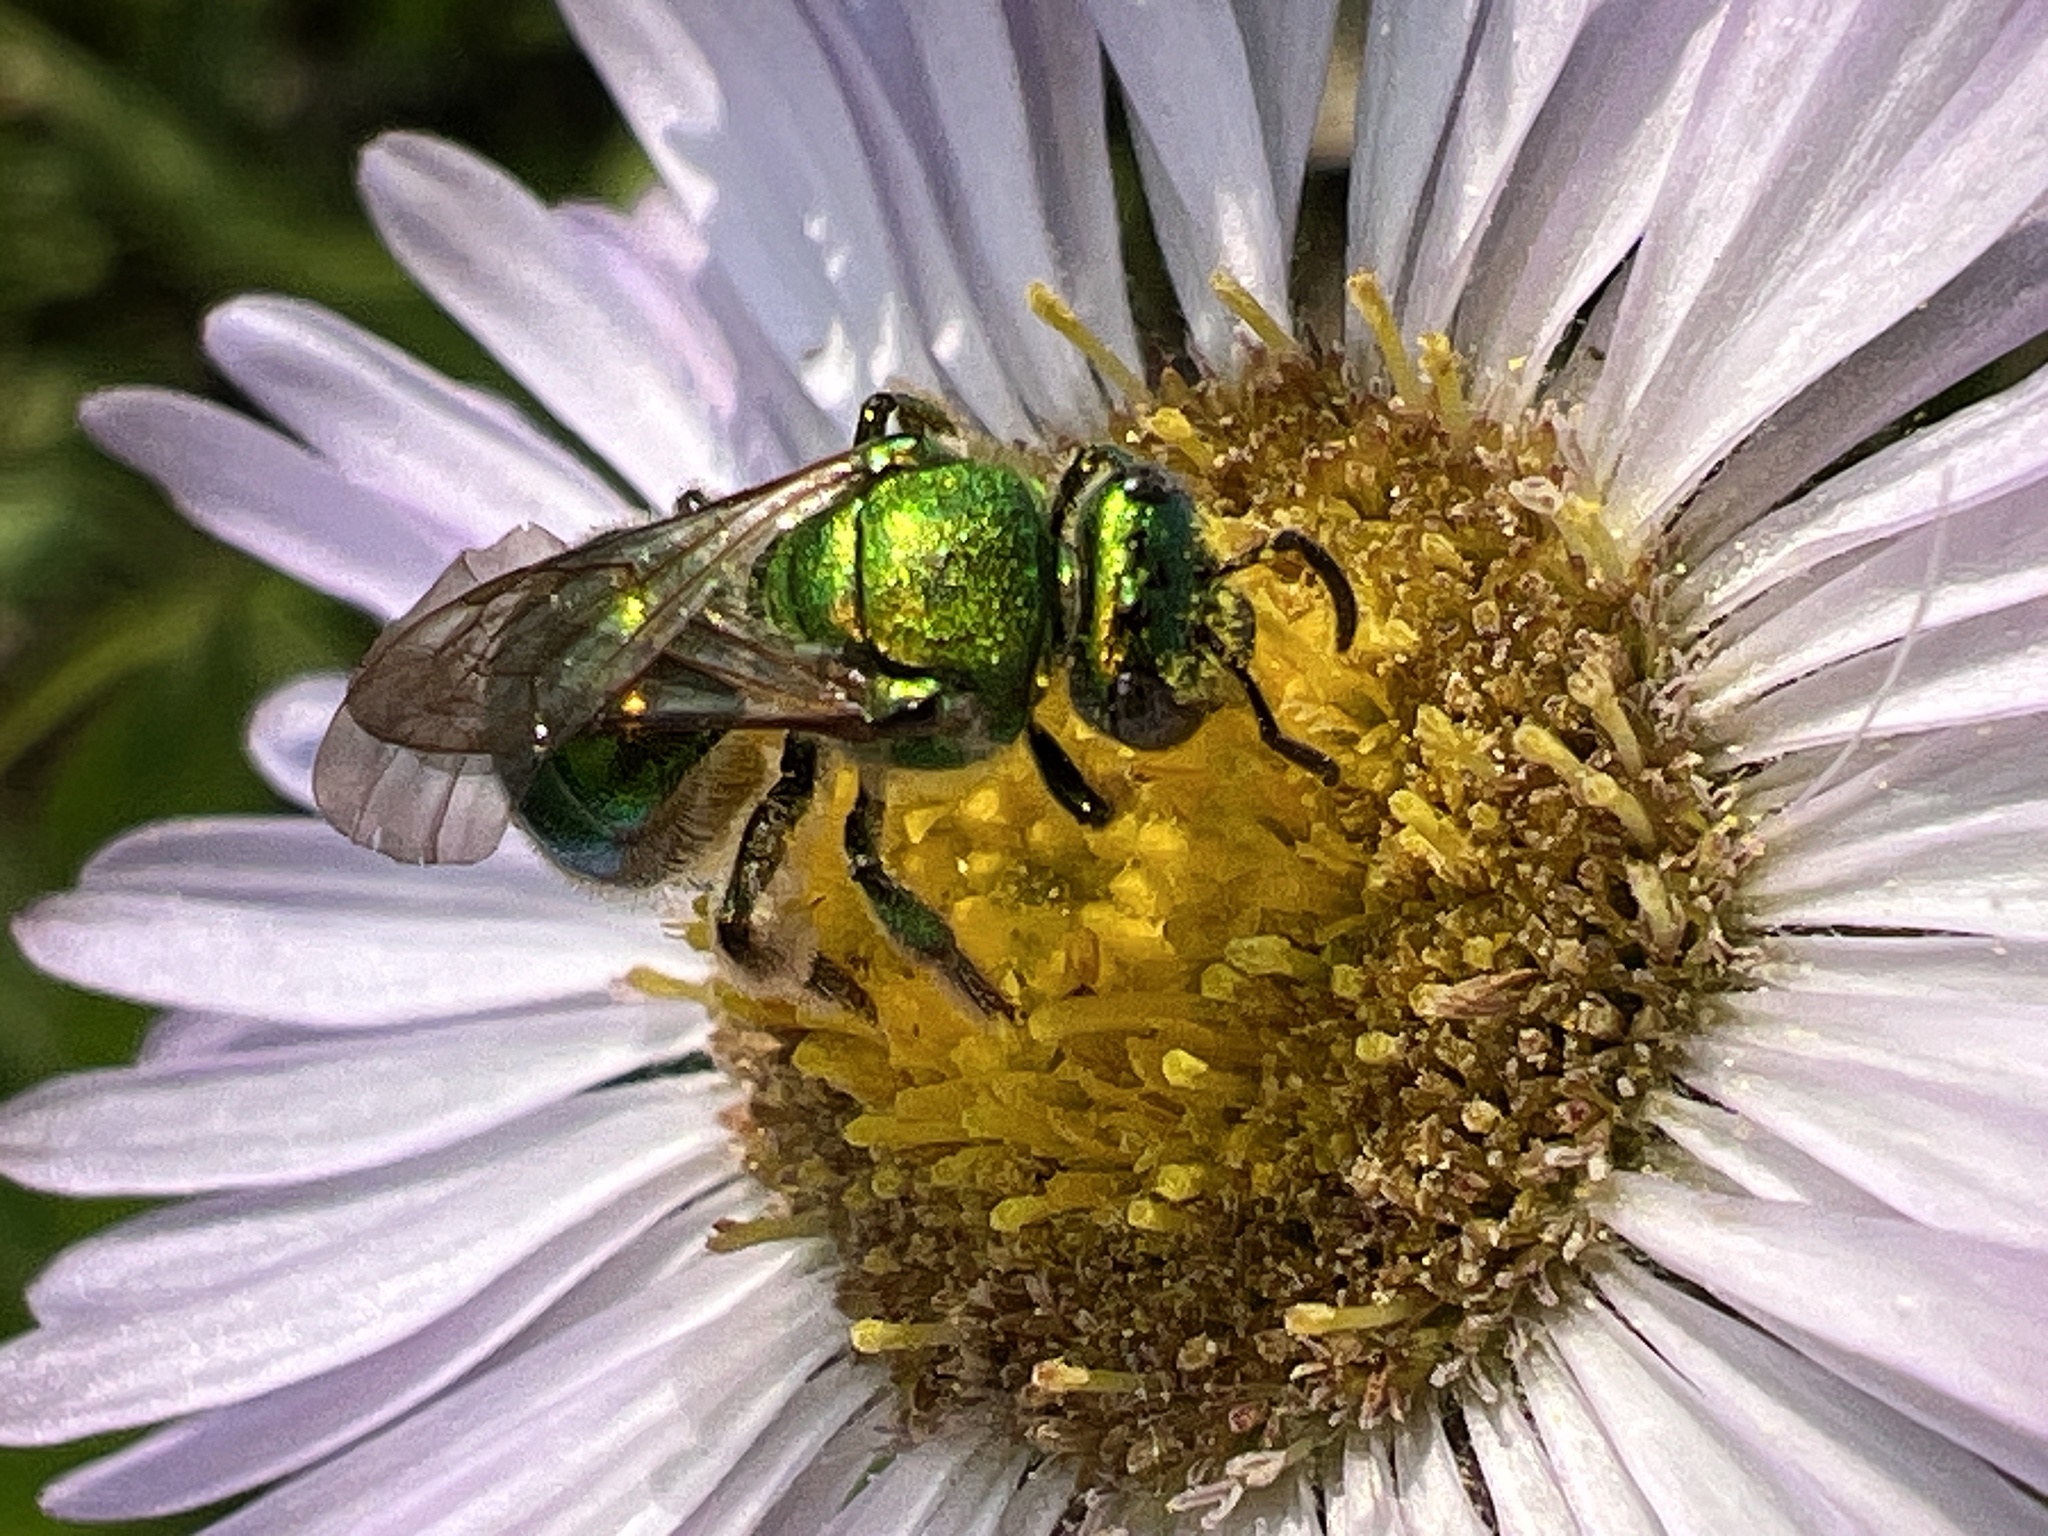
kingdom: Animalia
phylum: Arthropoda
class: Insecta
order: Hymenoptera
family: Halictidae
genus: Augochloropsis
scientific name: Augochloropsis viridula
